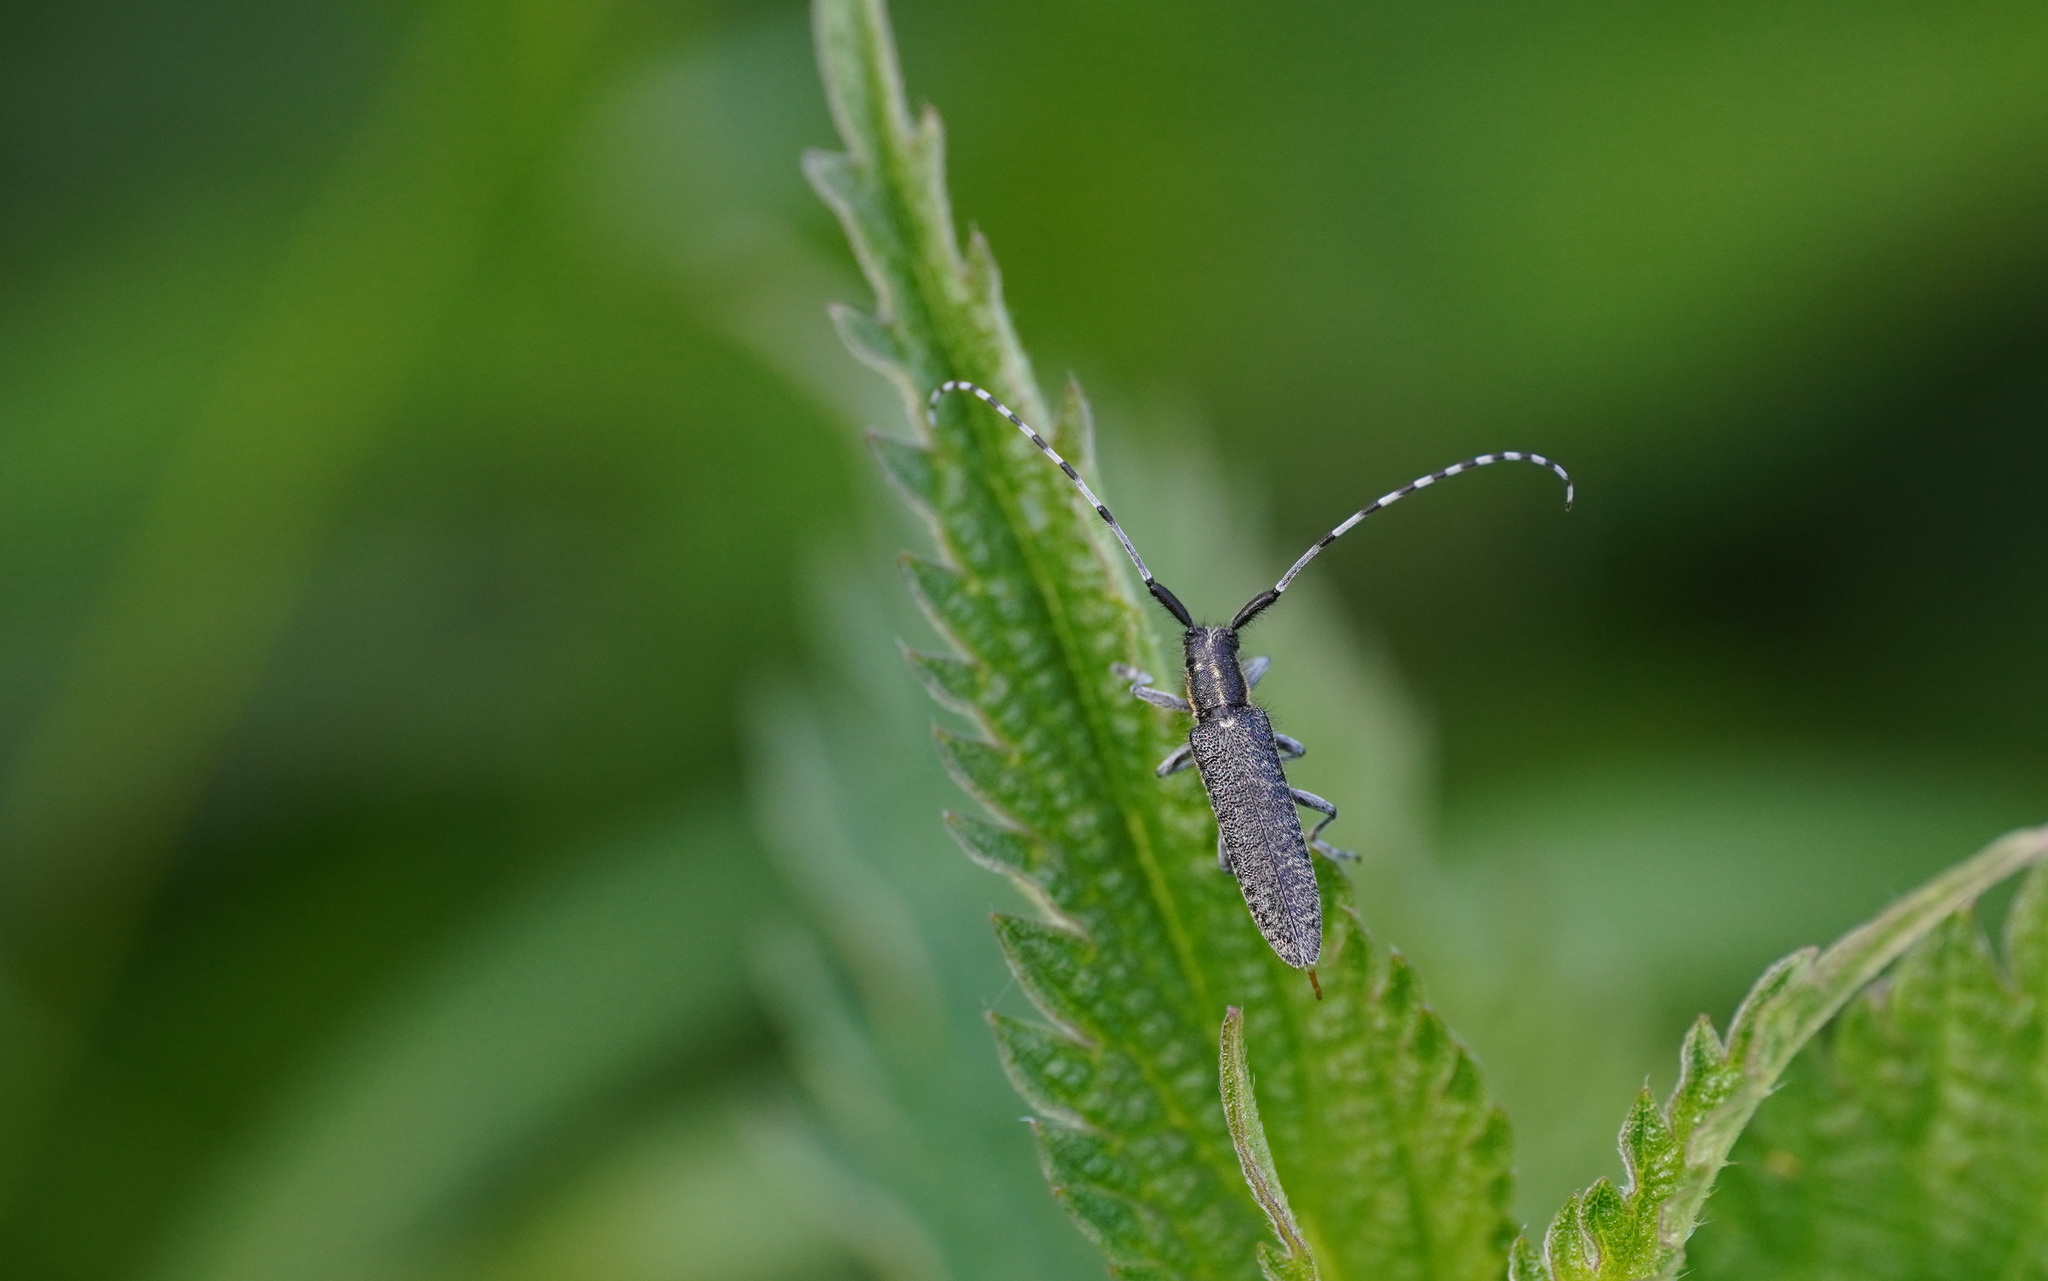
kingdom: Animalia
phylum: Arthropoda
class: Insecta
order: Coleoptera
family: Cerambycidae
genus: Agapanthia
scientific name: Agapanthia villosoviridescens
